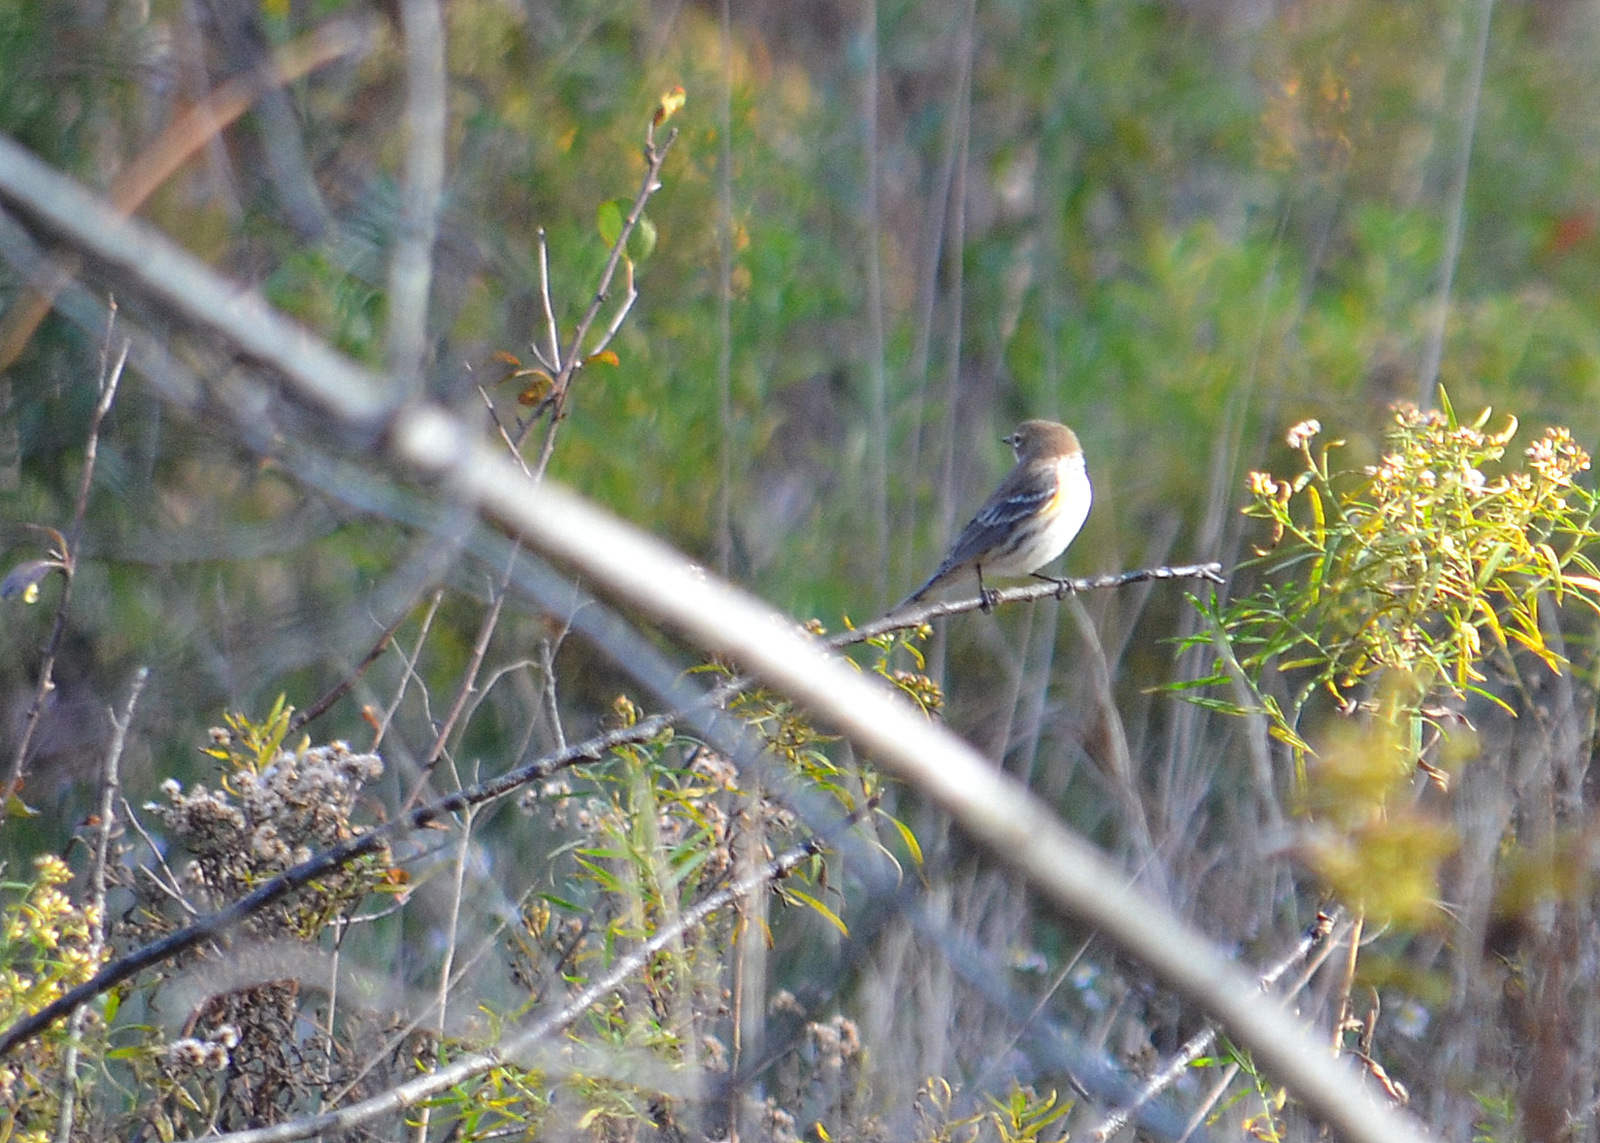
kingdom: Animalia
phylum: Chordata
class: Aves
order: Passeriformes
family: Parulidae
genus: Setophaga
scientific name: Setophaga coronata
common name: Myrtle warbler
